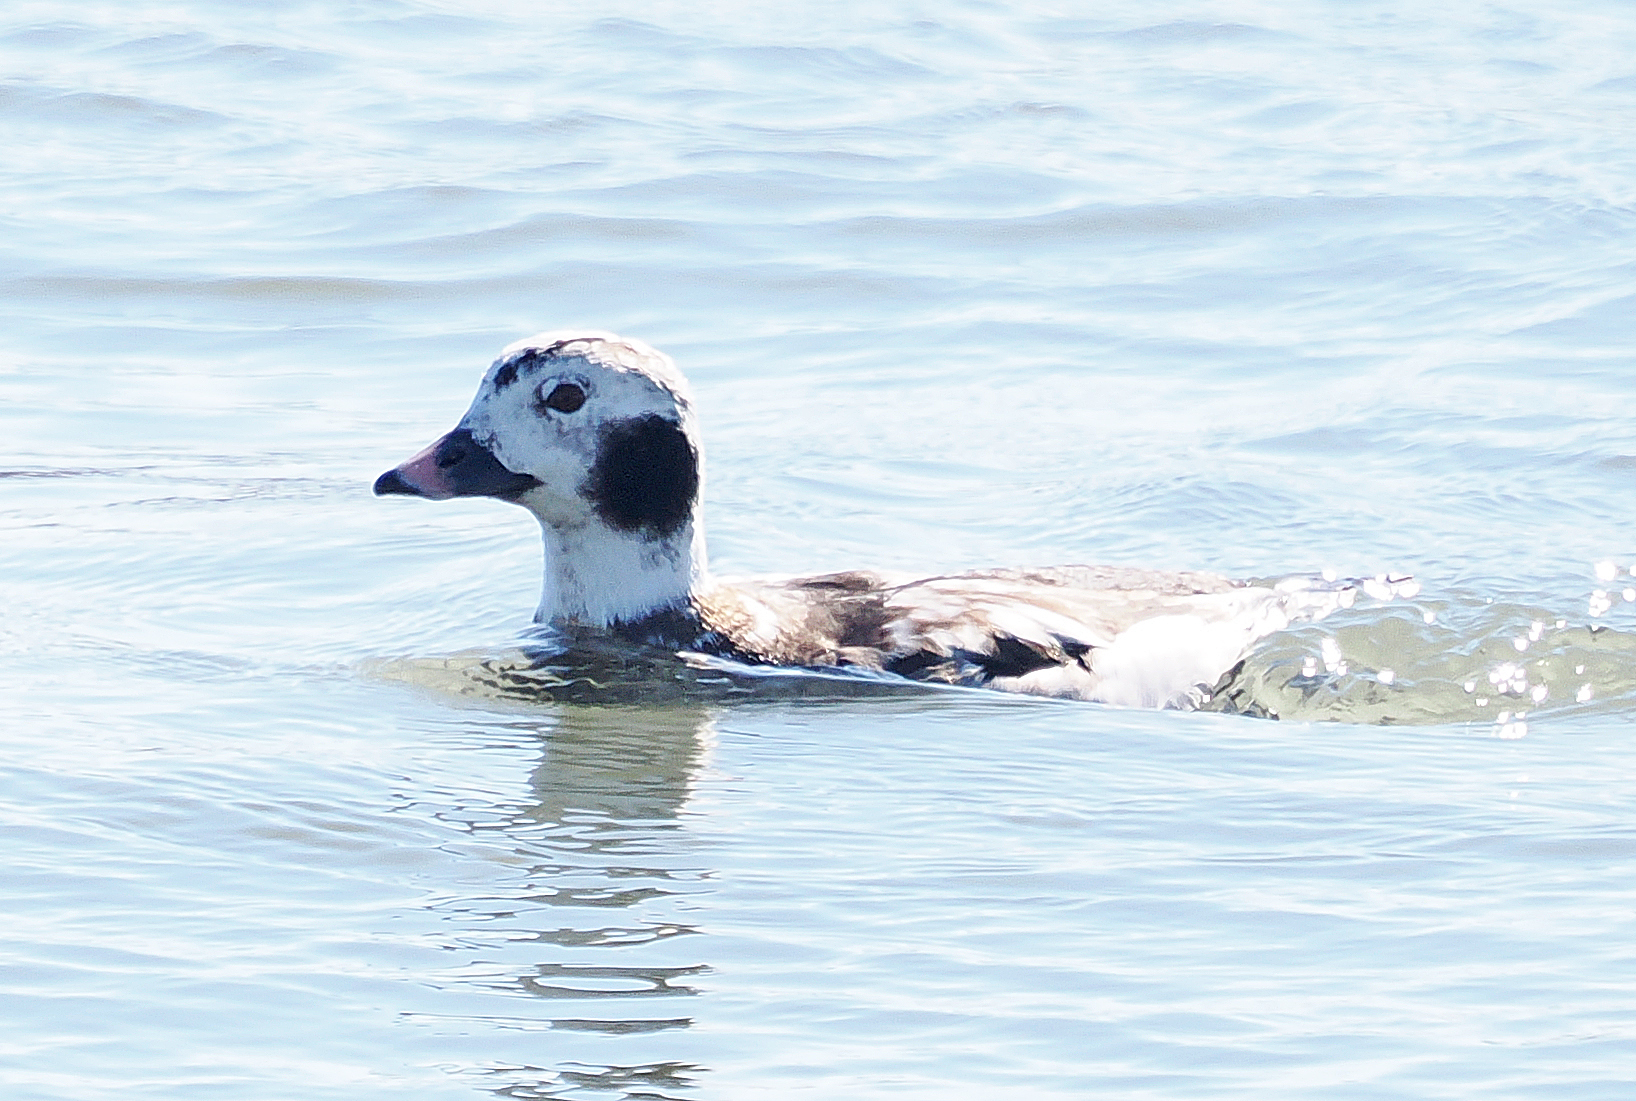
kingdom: Animalia
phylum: Chordata
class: Aves
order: Anseriformes
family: Anatidae
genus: Clangula
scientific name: Clangula hyemalis
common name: Long-tailed duck
